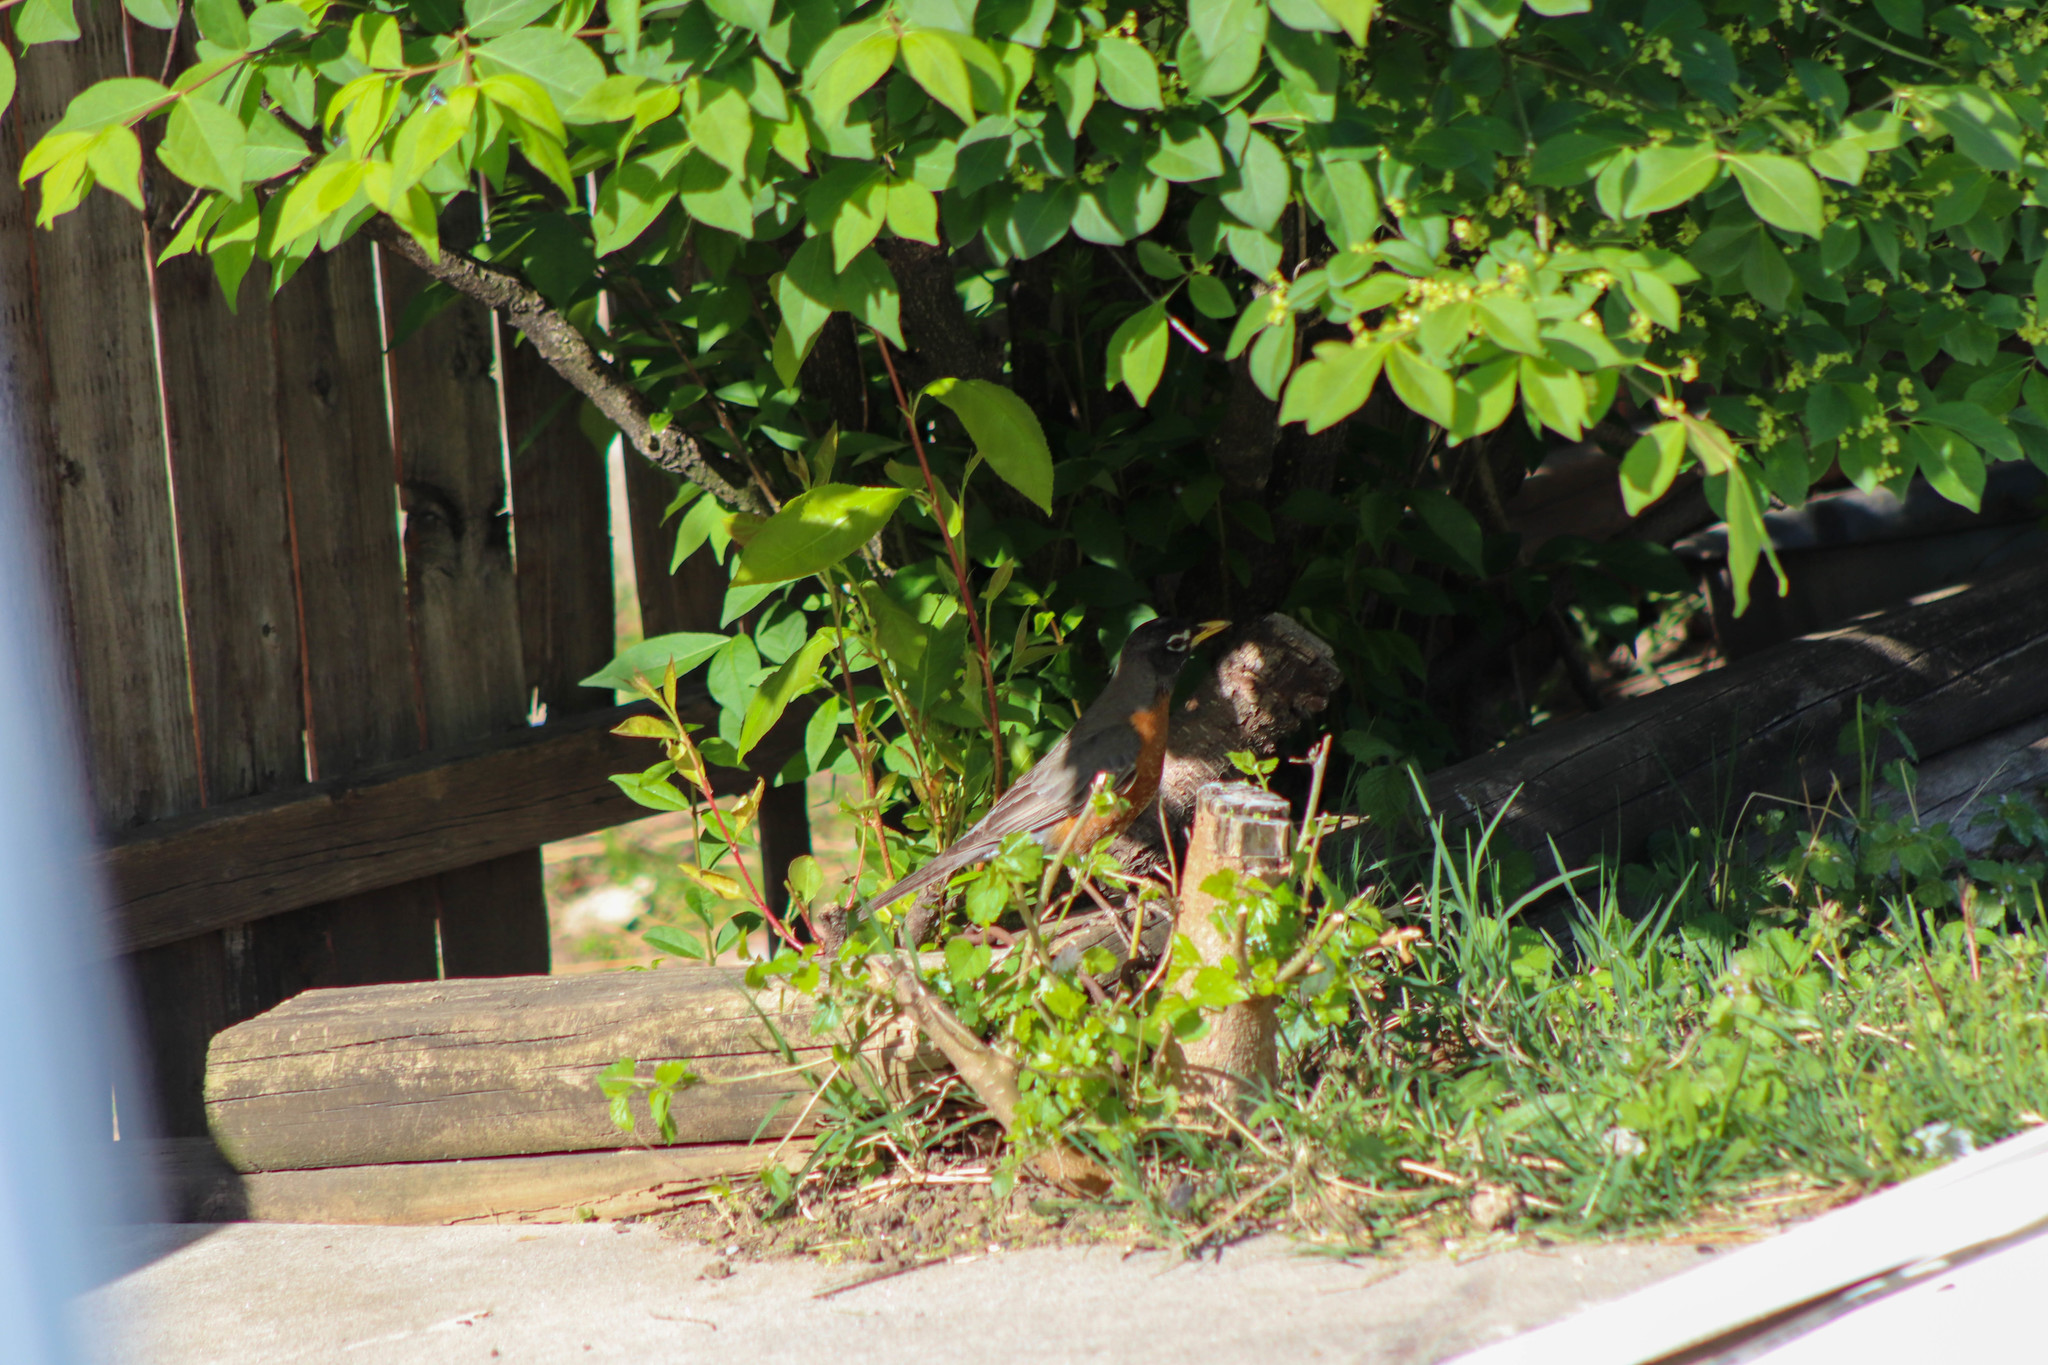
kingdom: Animalia
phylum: Chordata
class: Aves
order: Passeriformes
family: Turdidae
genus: Turdus
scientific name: Turdus migratorius
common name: American robin
